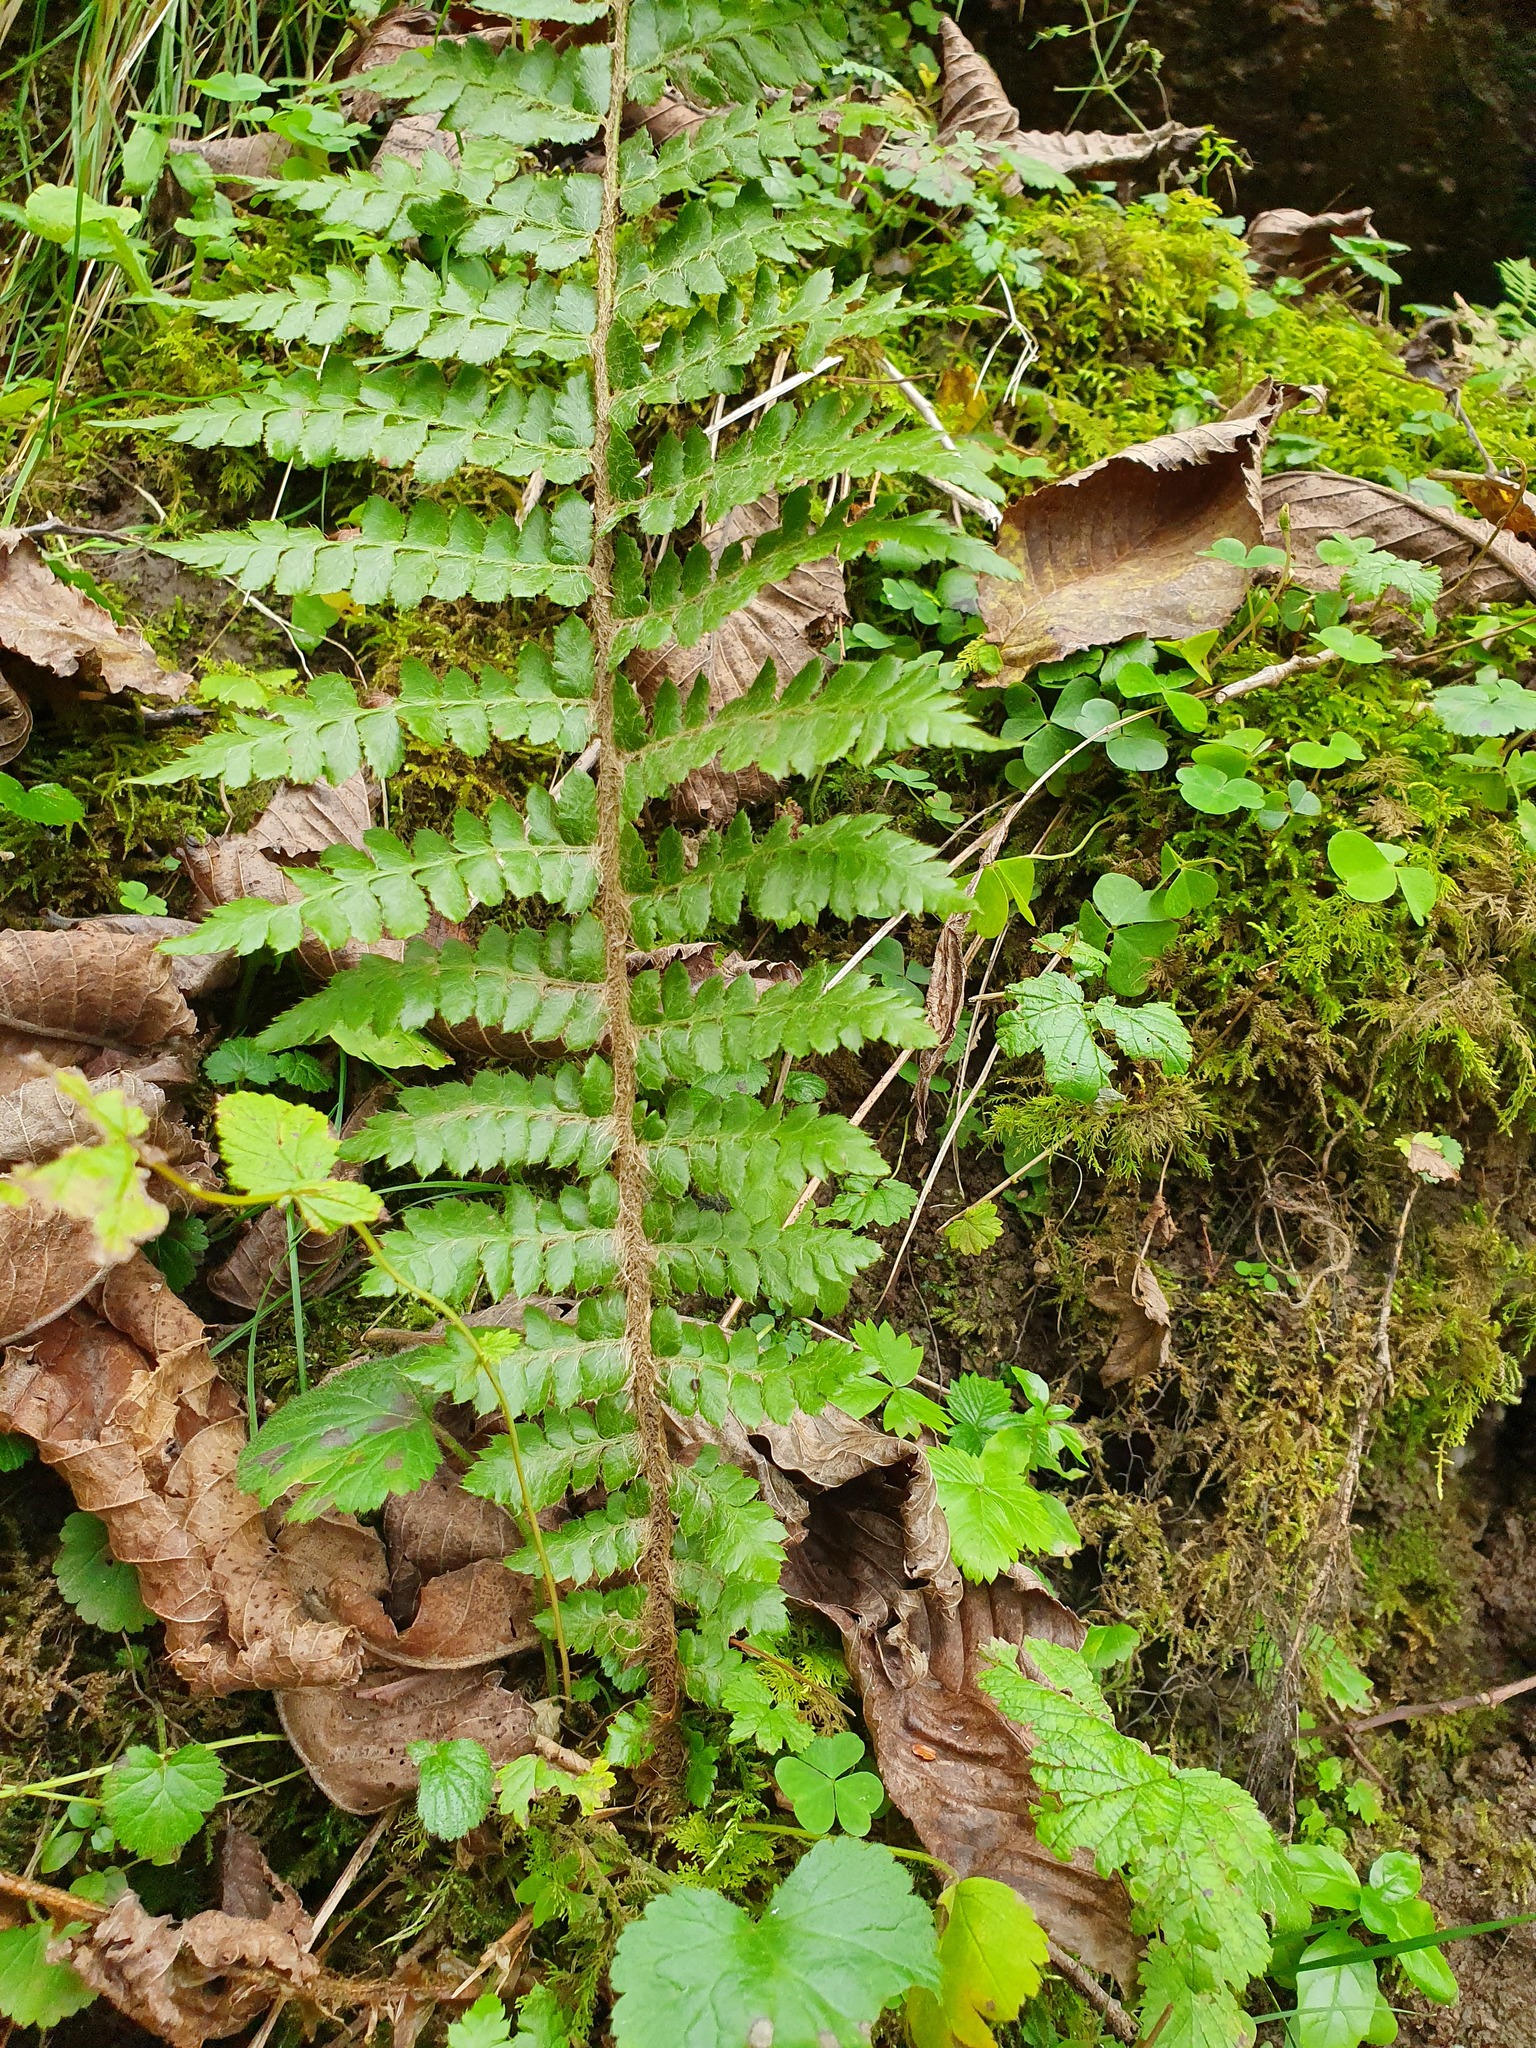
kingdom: Plantae
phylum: Tracheophyta
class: Polypodiopsida
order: Polypodiales
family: Dryopteridaceae
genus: Polystichum
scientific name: Polystichum braunii
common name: Braun's holly fern
